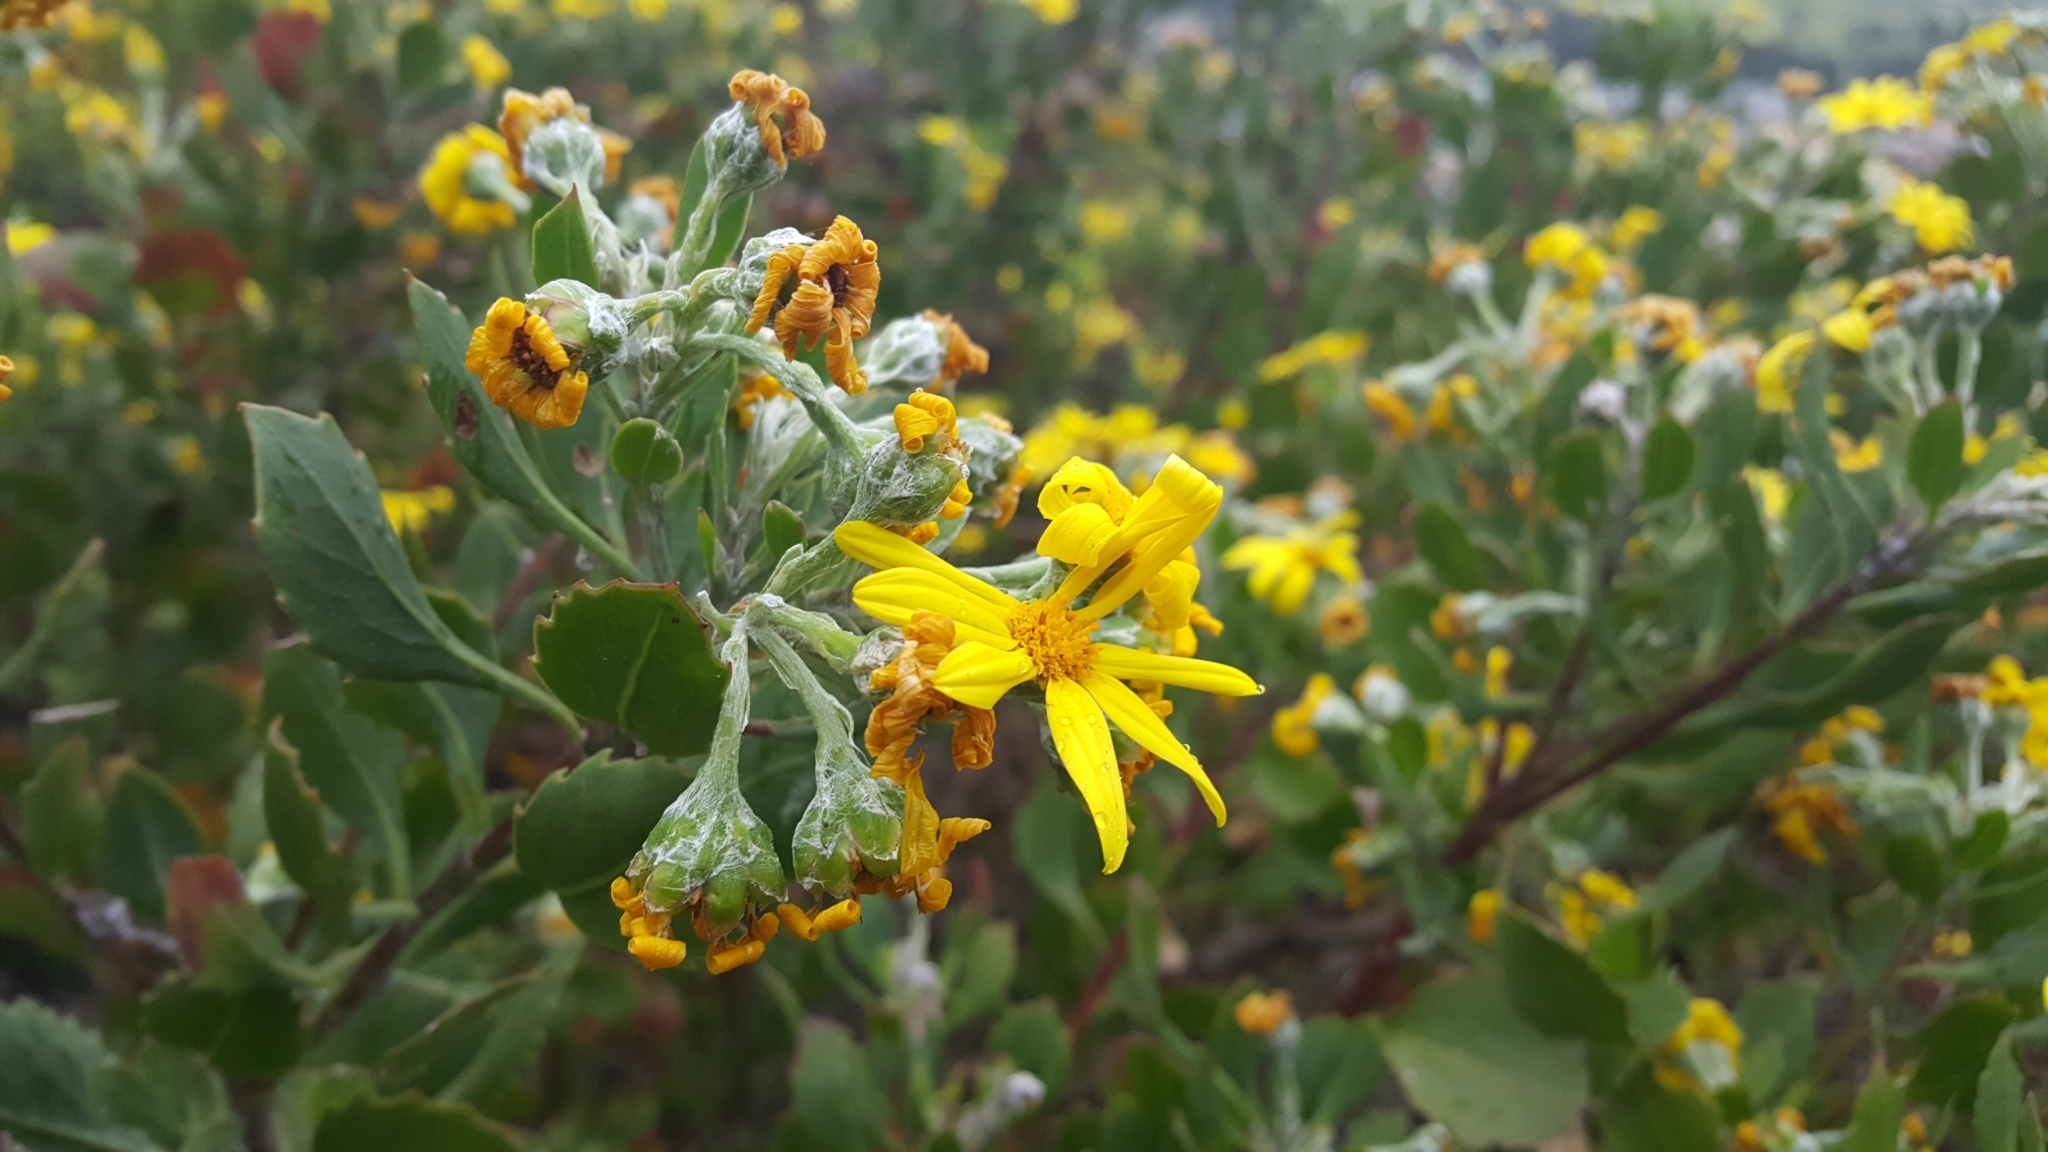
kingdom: Plantae
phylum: Tracheophyta
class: Magnoliopsida
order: Asterales
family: Asteraceae
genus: Osteospermum
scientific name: Osteospermum moniliferum
